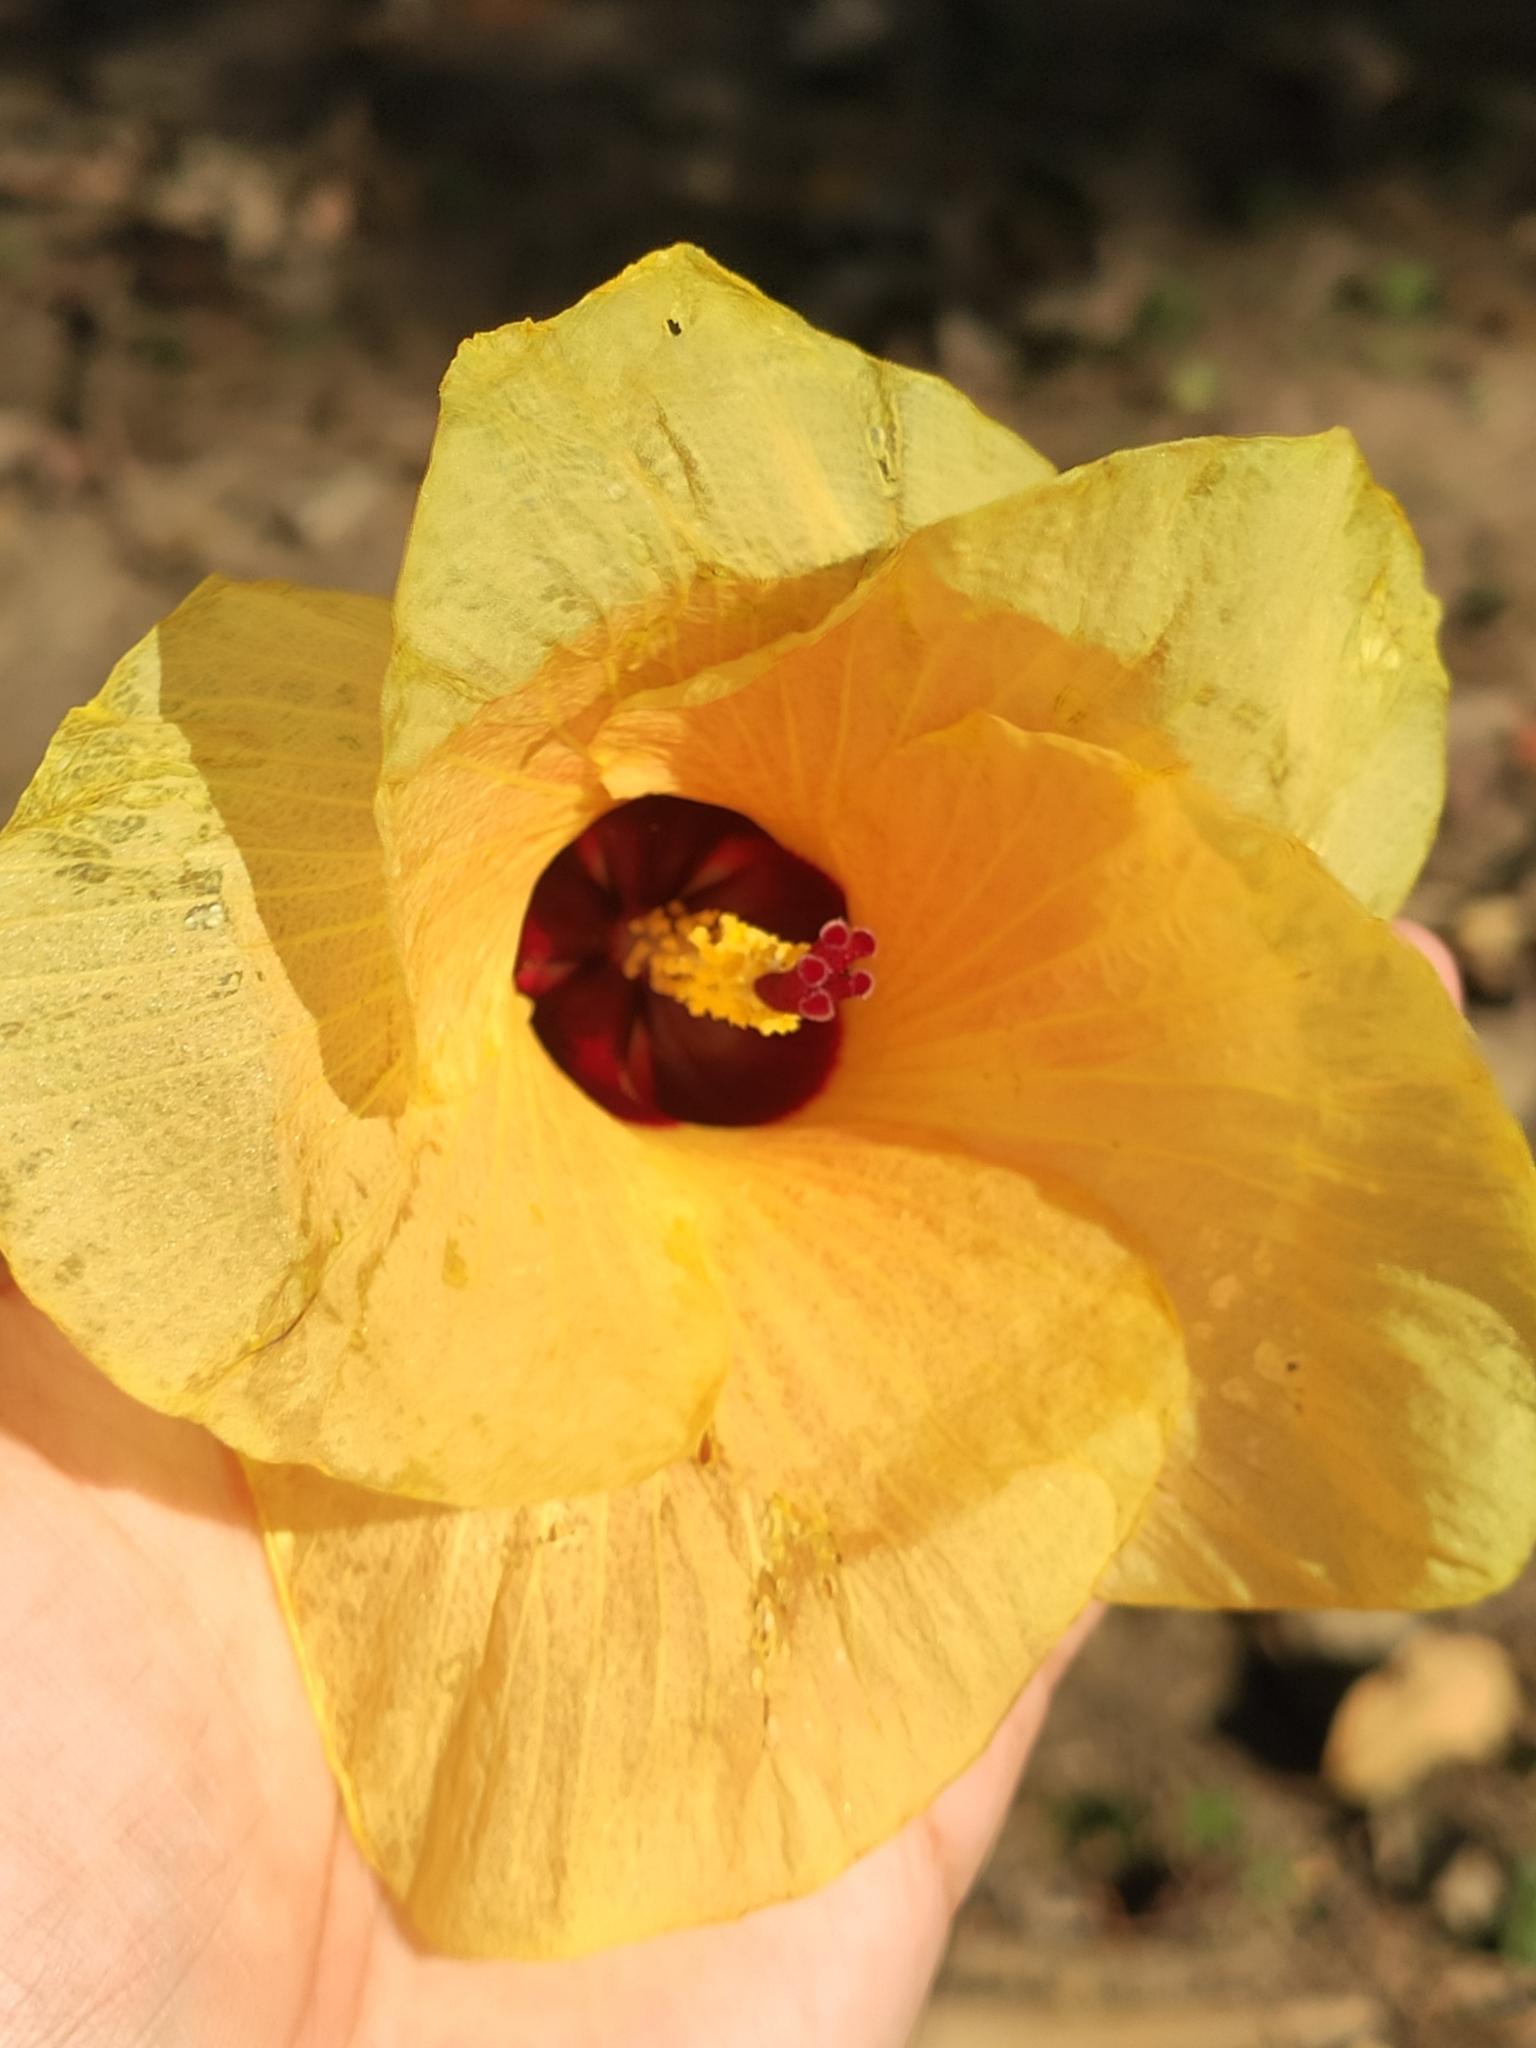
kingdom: Plantae
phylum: Tracheophyta
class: Magnoliopsida
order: Malvales
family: Malvaceae
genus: Talipariti
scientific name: Talipariti tiliaceum
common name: Sea hibiscus
